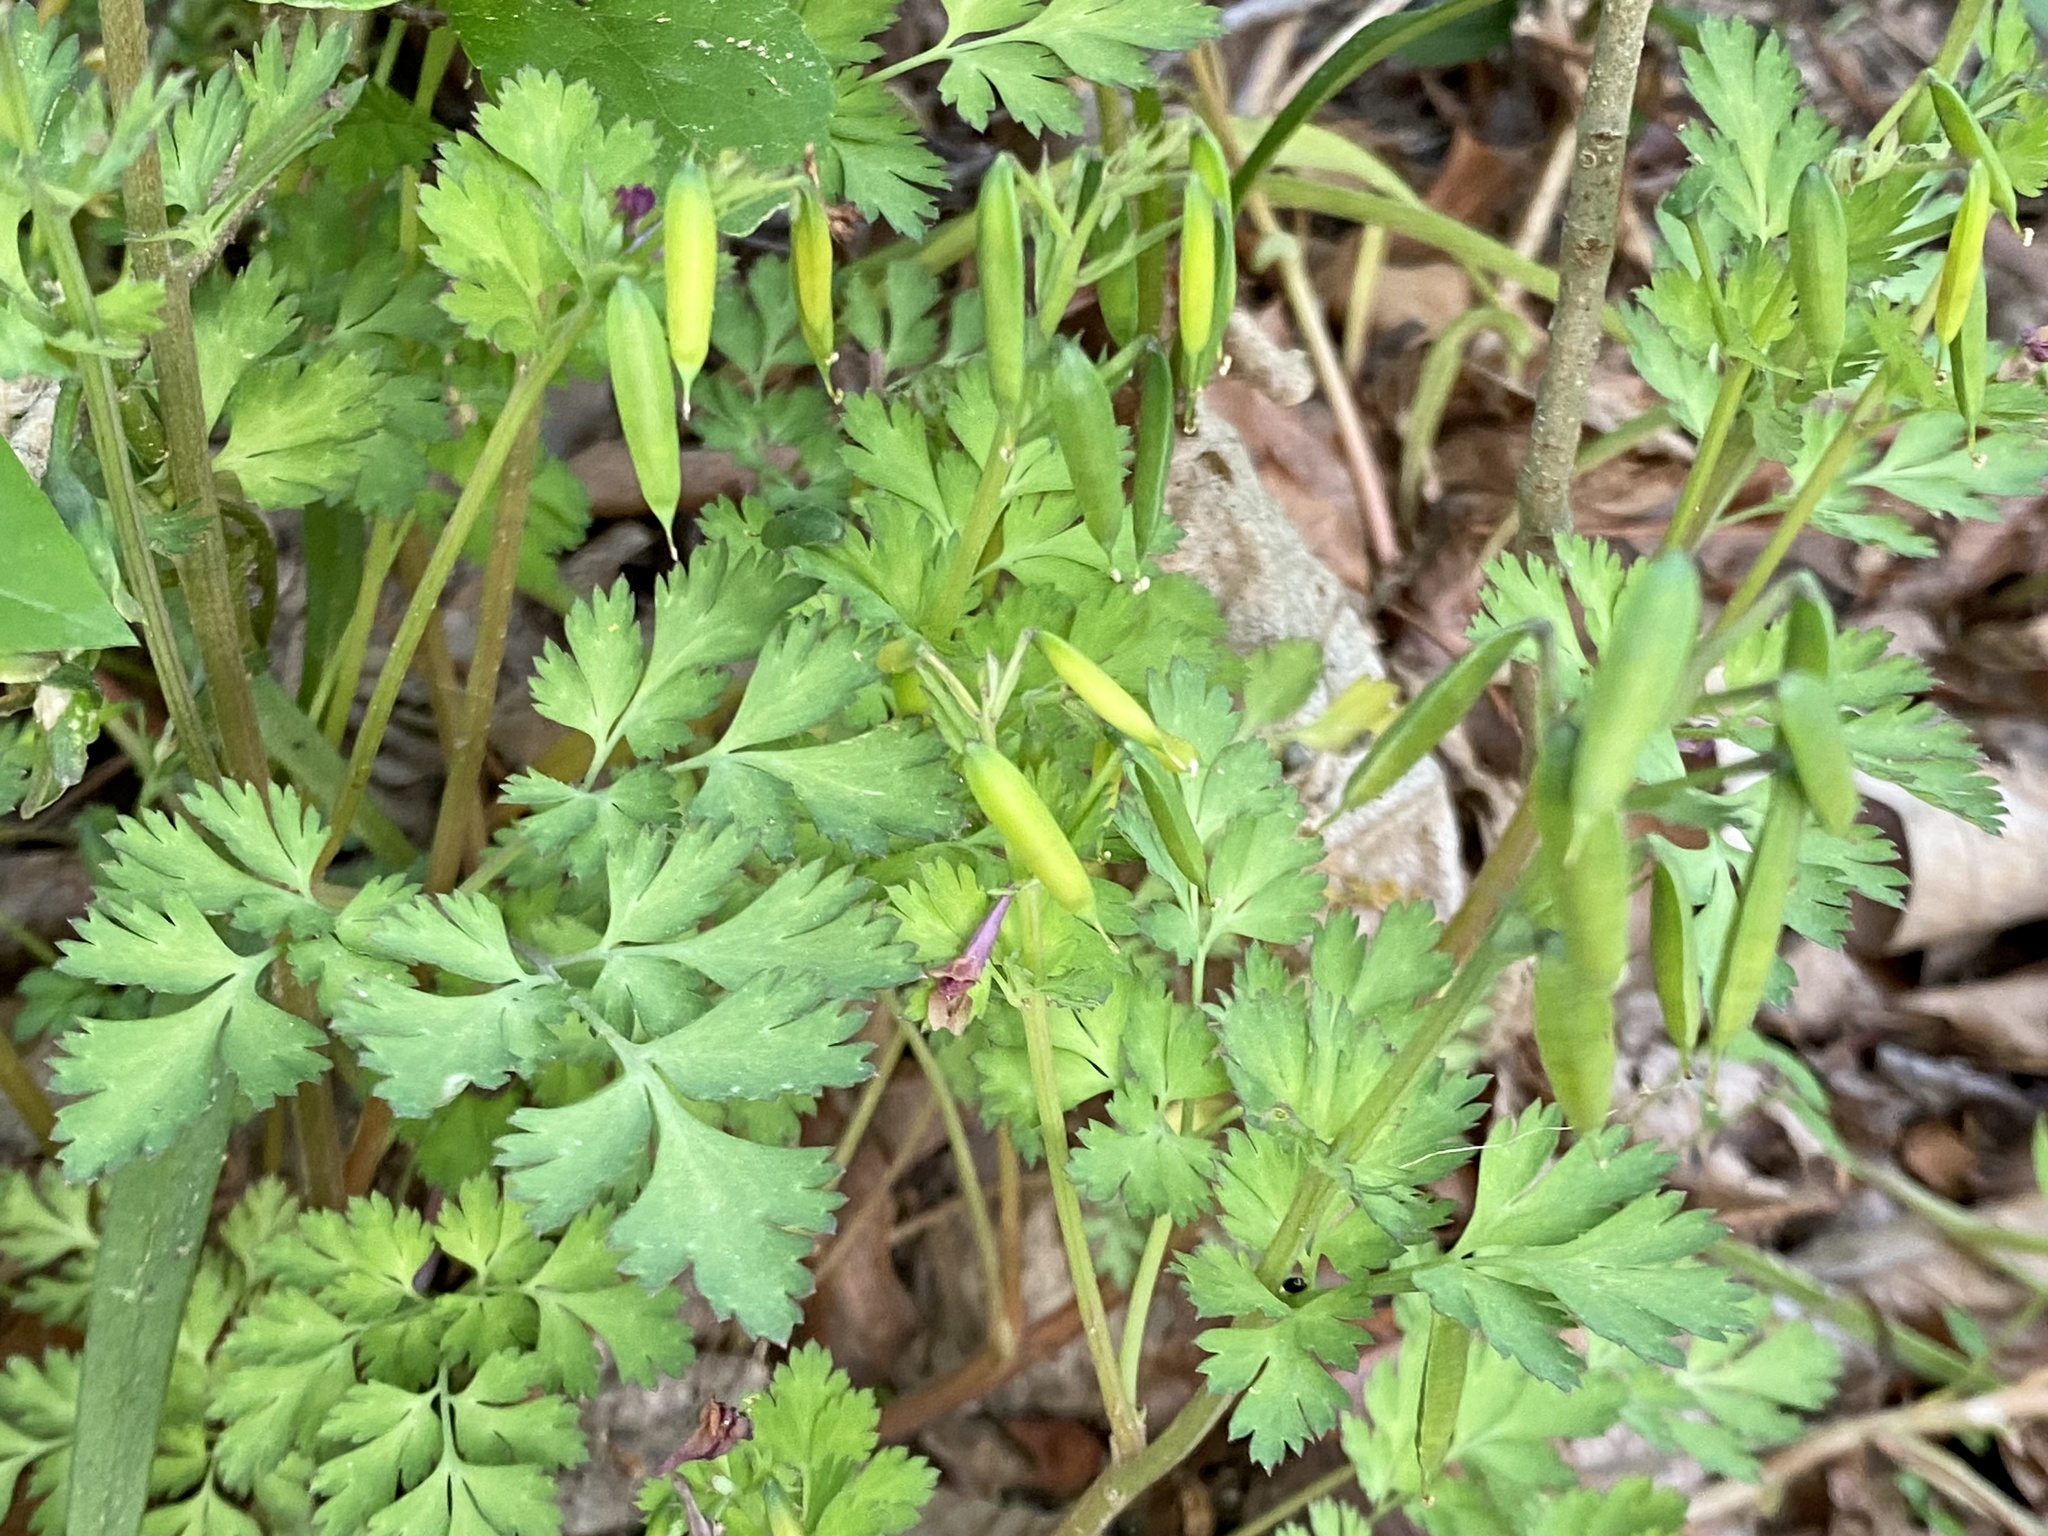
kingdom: Plantae
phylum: Tracheophyta
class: Magnoliopsida
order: Ranunculales
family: Papaveraceae
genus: Corydalis
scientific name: Corydalis incisa
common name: Incised fumewort
